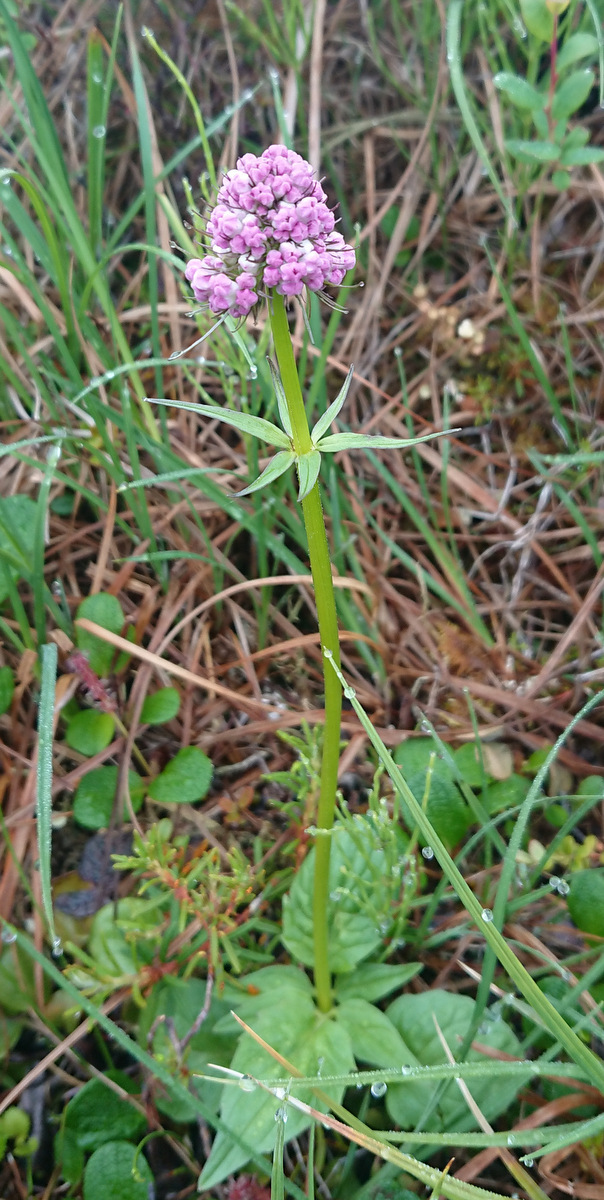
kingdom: Plantae
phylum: Tracheophyta
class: Magnoliopsida
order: Dipsacales
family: Caprifoliaceae
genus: Valeriana
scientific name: Valeriana capitata
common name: Capitate valerian
